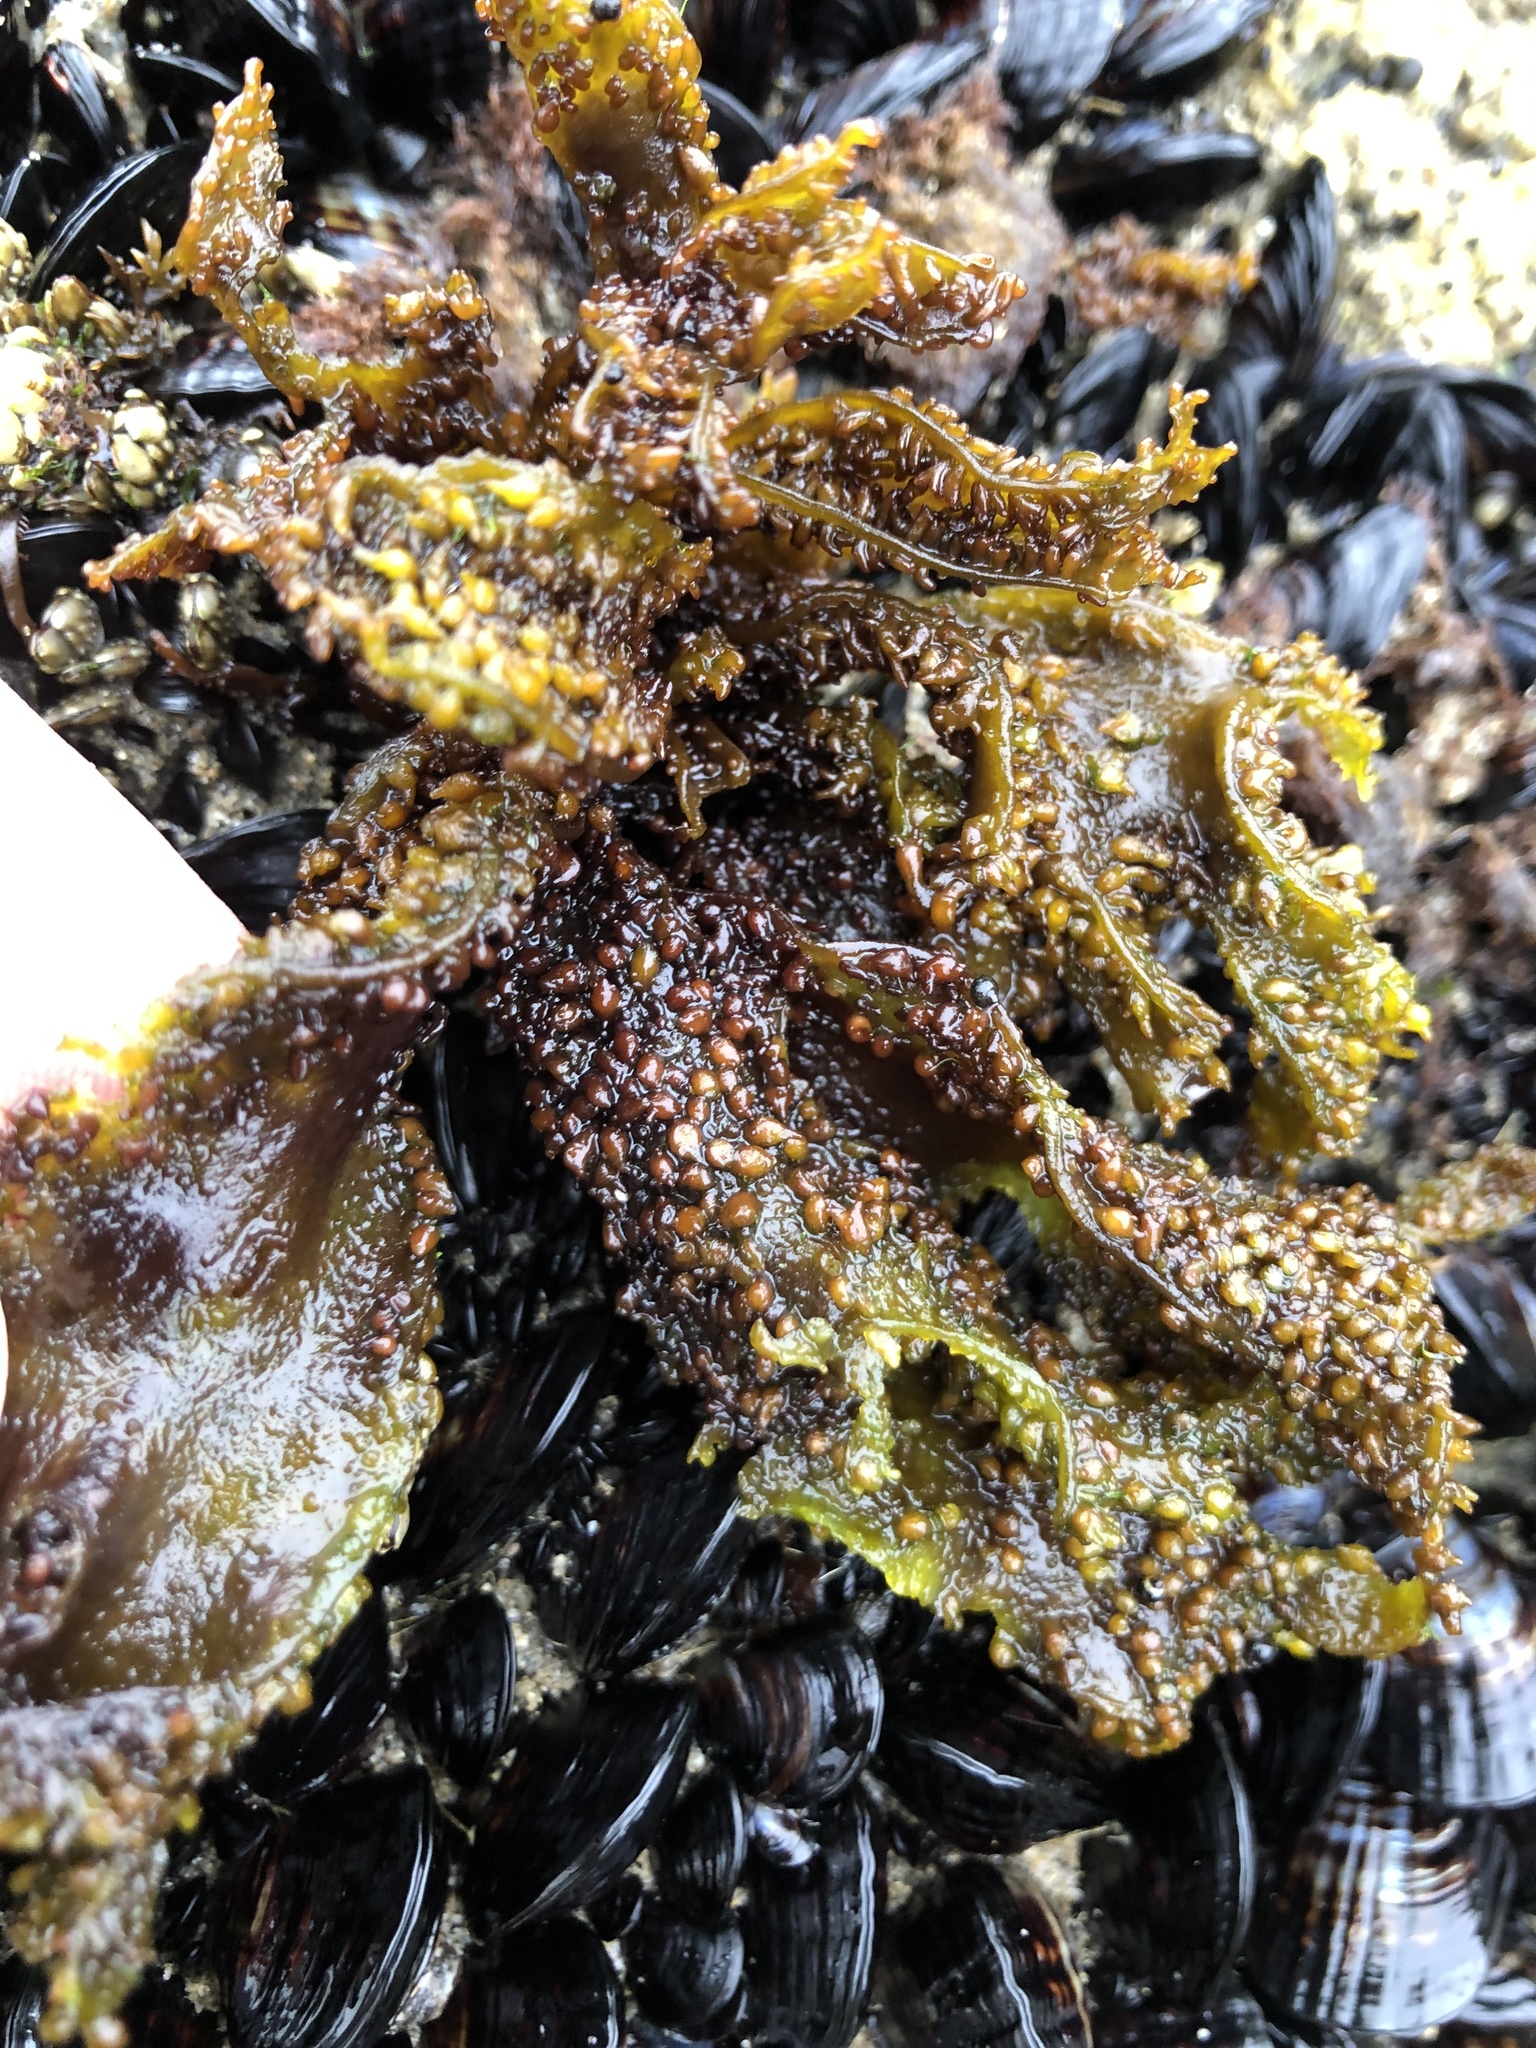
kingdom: Plantae
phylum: Rhodophyta
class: Florideophyceae
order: Gigartinales
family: Phyllophoraceae
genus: Mastocarpus
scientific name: Mastocarpus papillatus
